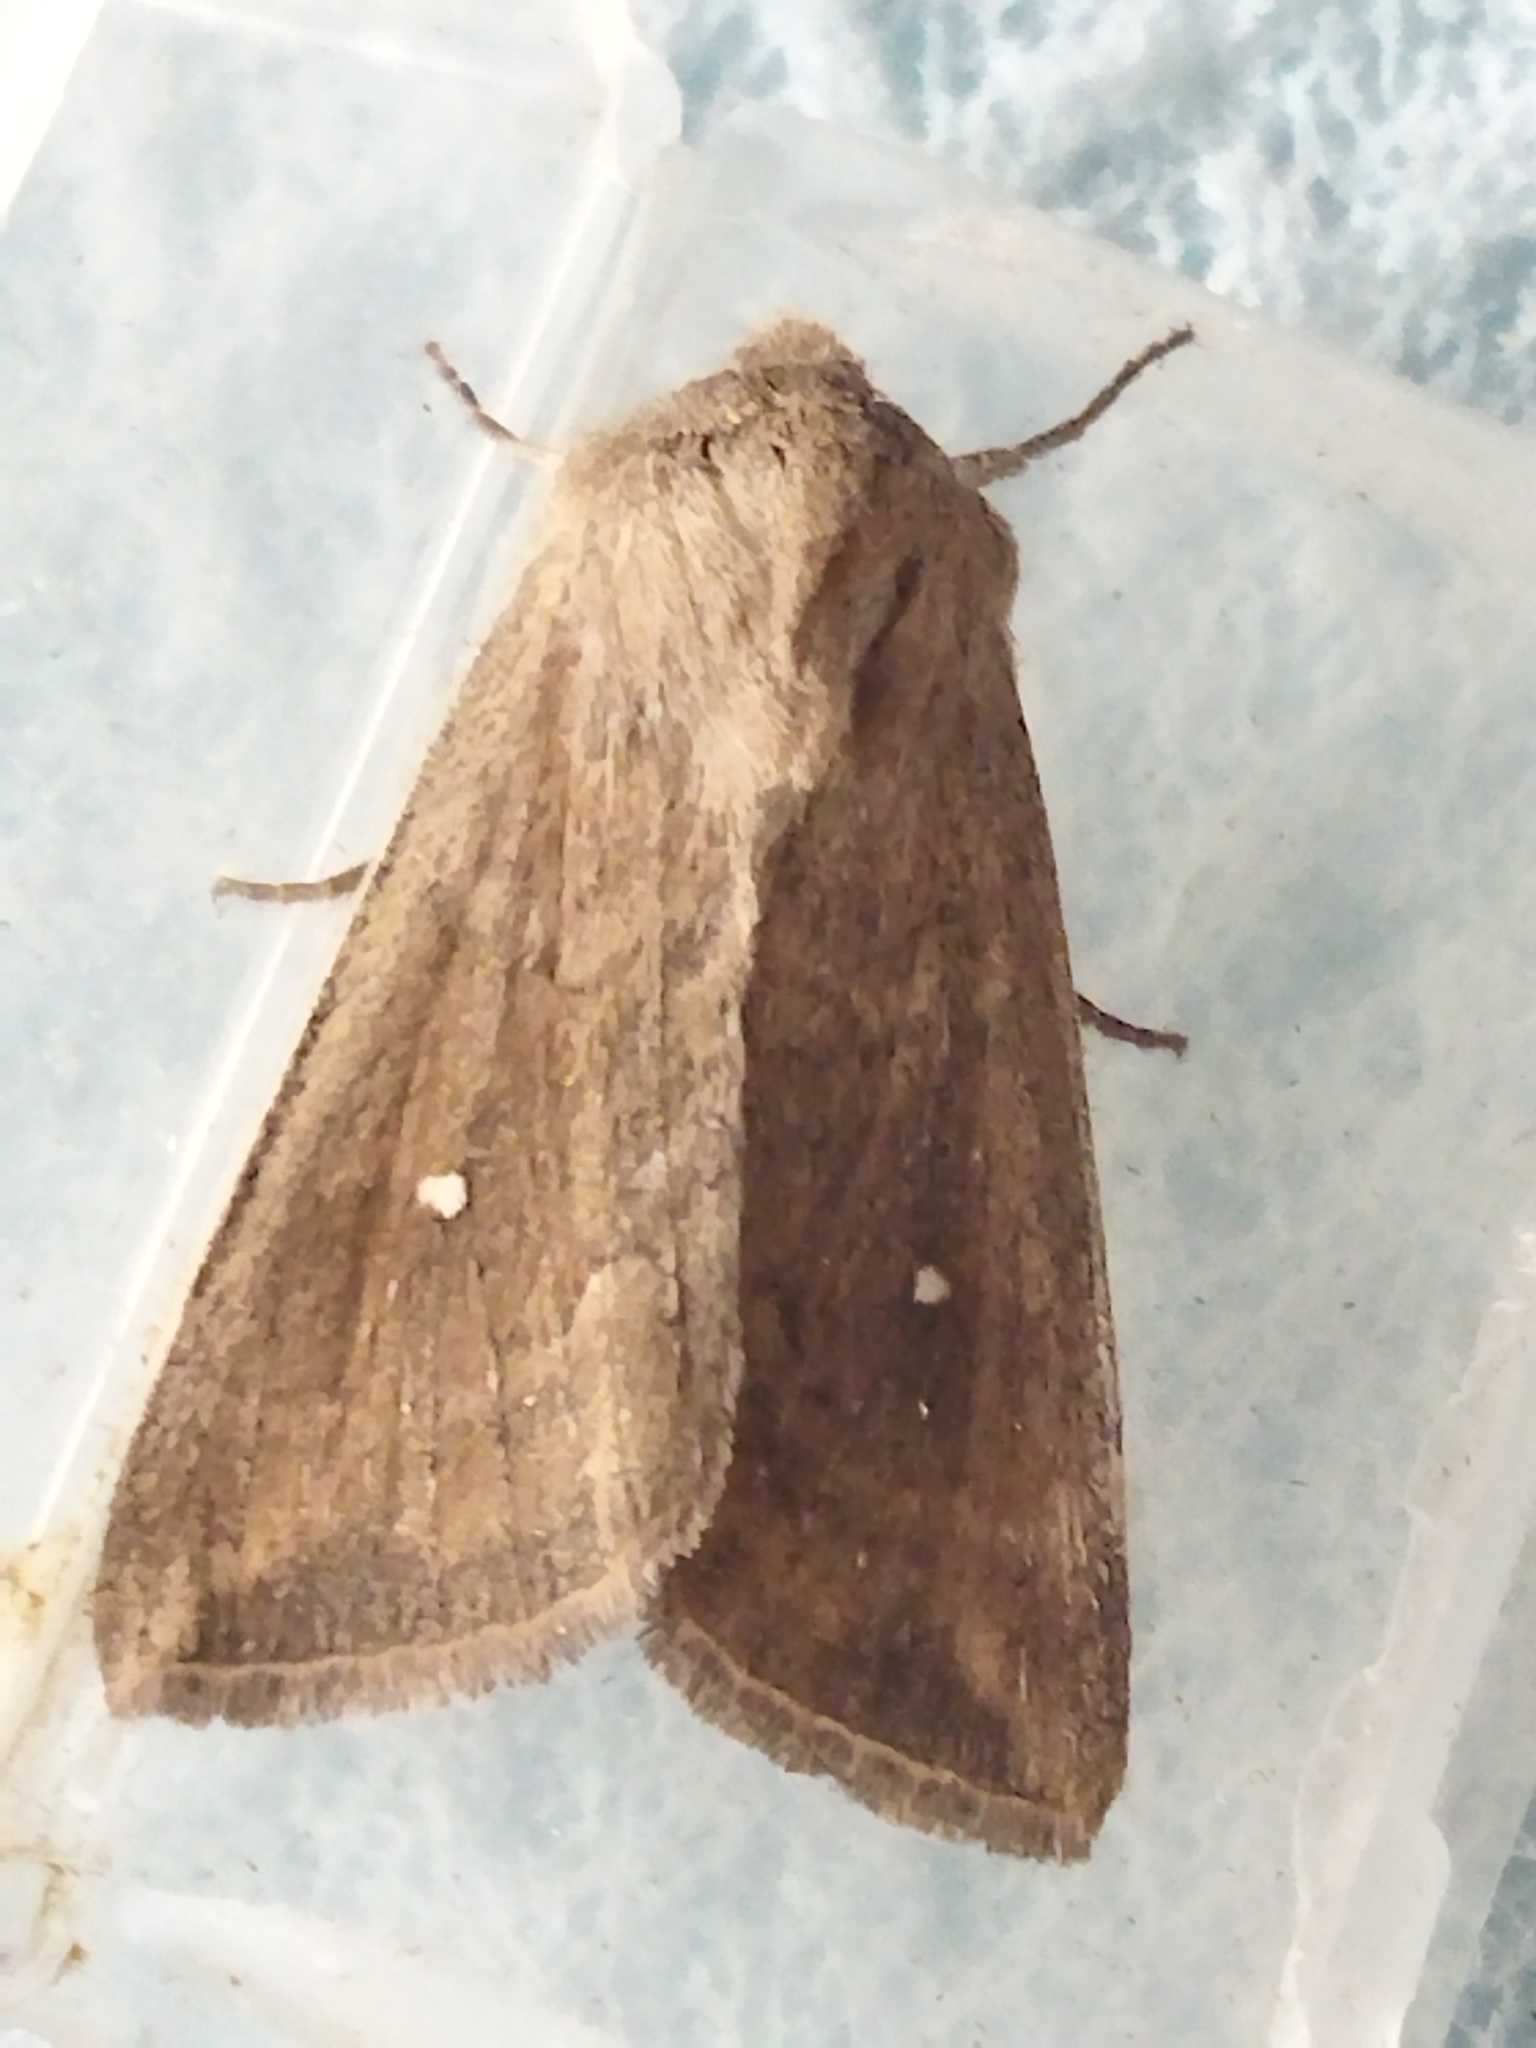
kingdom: Animalia
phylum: Arthropoda
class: Insecta
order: Lepidoptera
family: Noctuidae
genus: Mythimna
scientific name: Mythimna albipuncta
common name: White-point
